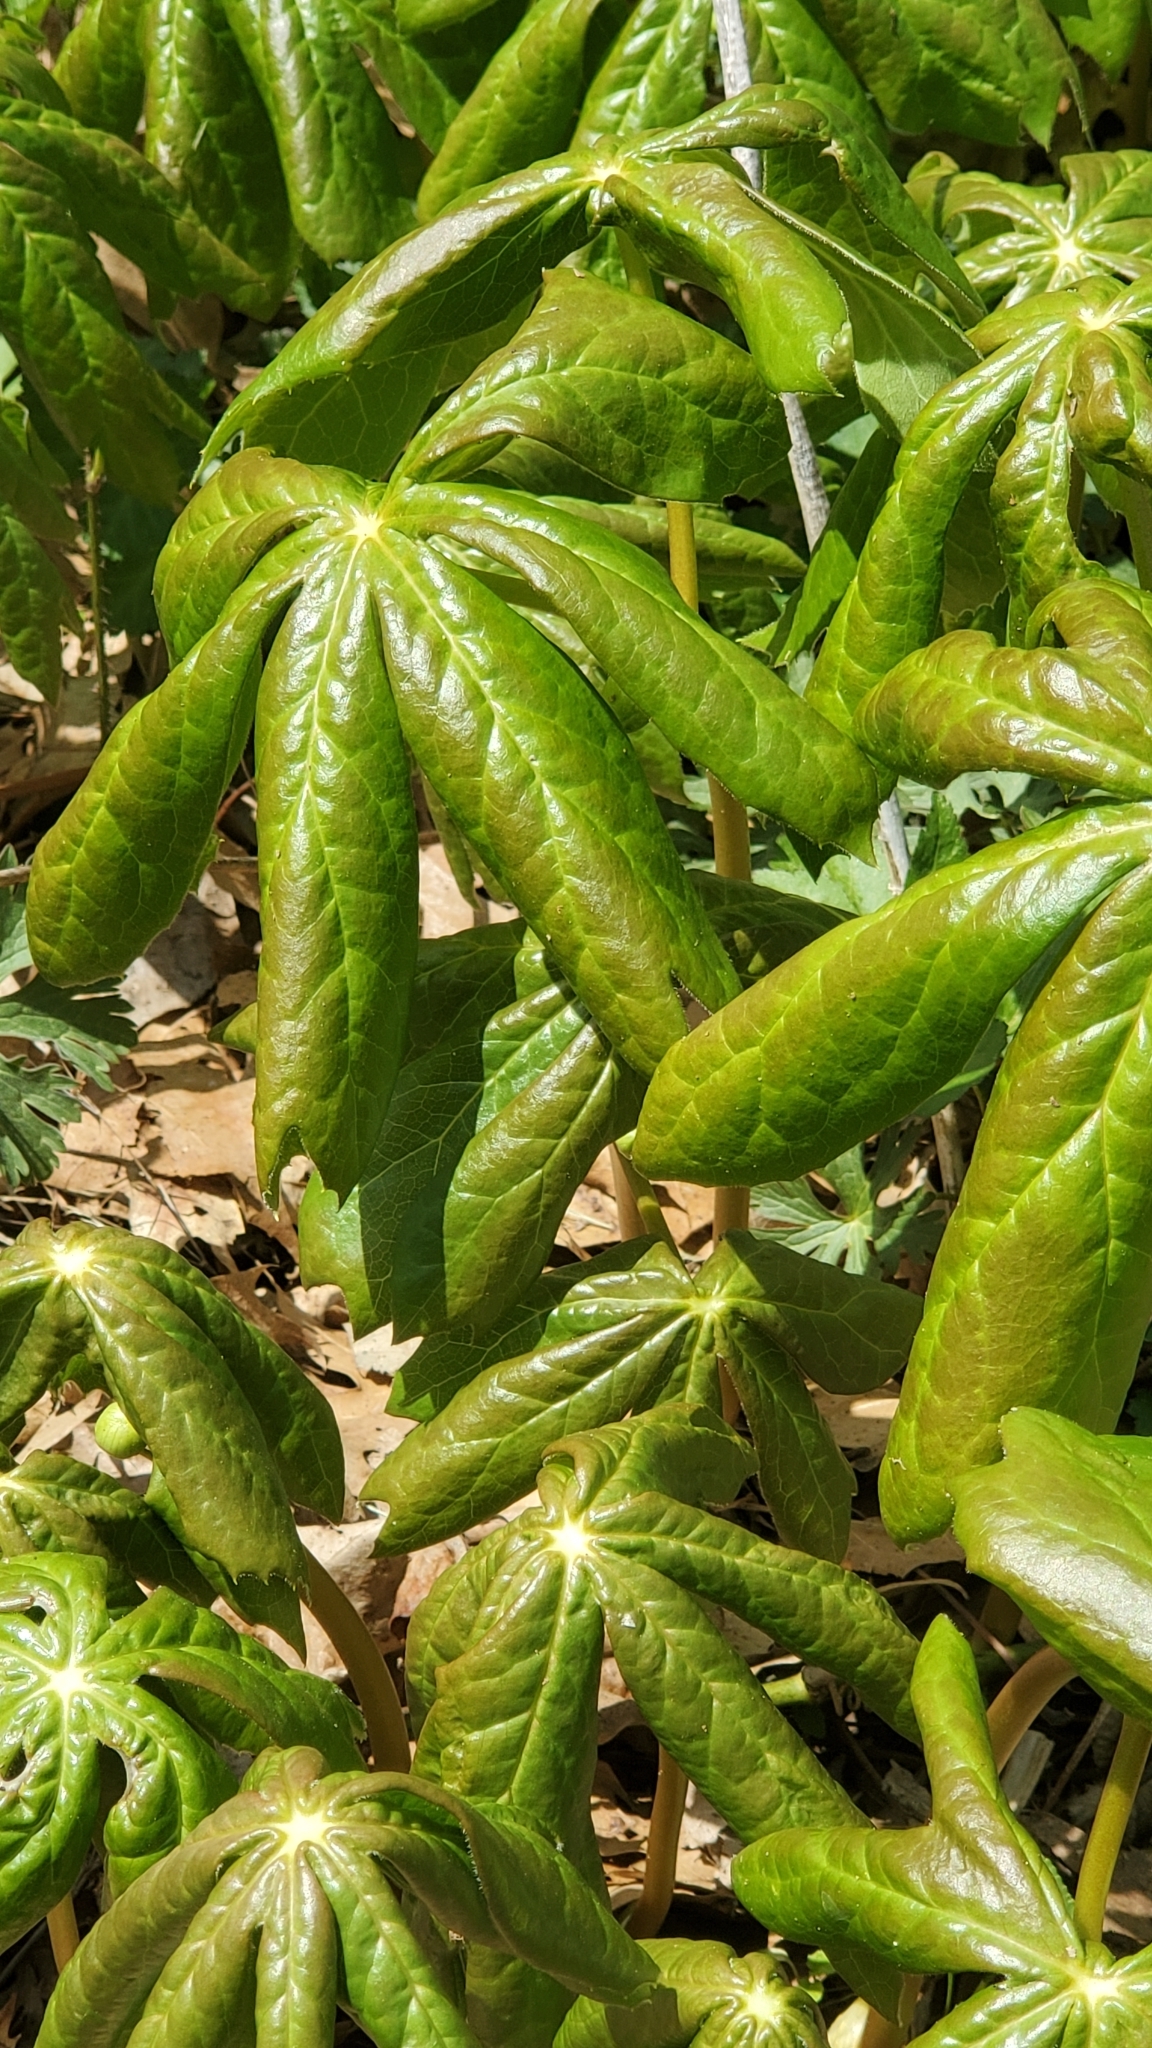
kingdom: Plantae
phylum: Tracheophyta
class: Magnoliopsida
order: Ranunculales
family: Berberidaceae
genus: Podophyllum
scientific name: Podophyllum peltatum
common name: Wild mandrake
